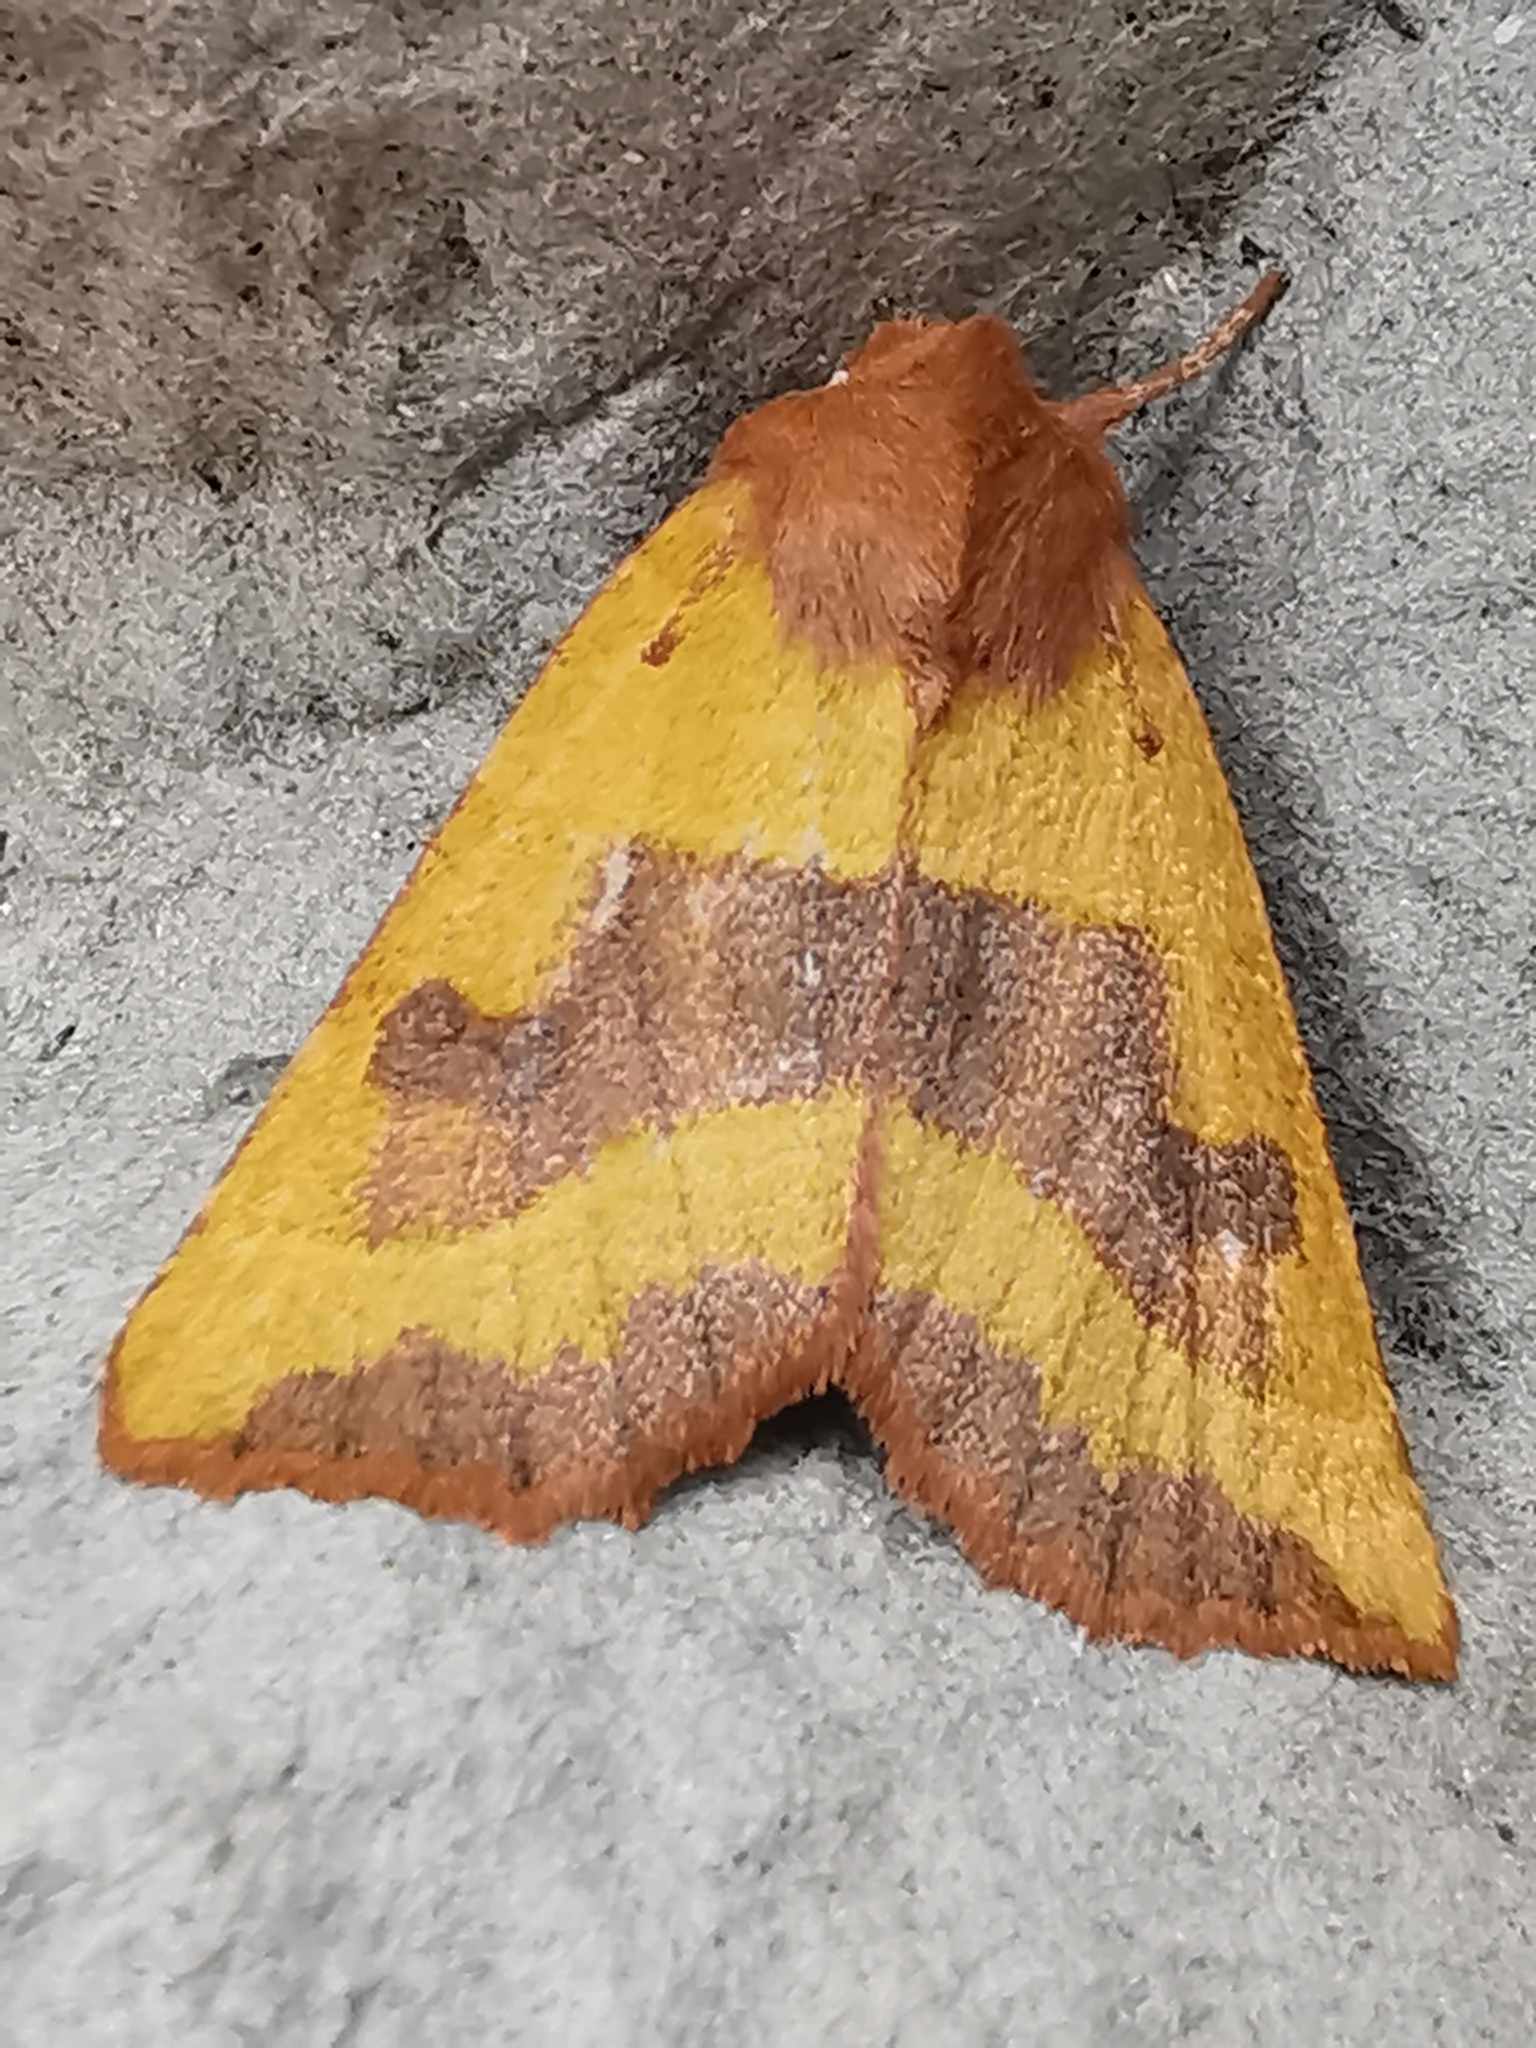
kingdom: Animalia
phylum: Arthropoda
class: Insecta
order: Lepidoptera
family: Noctuidae
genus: Atethmia
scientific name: Atethmia centrago
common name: Centre-barred sallow
